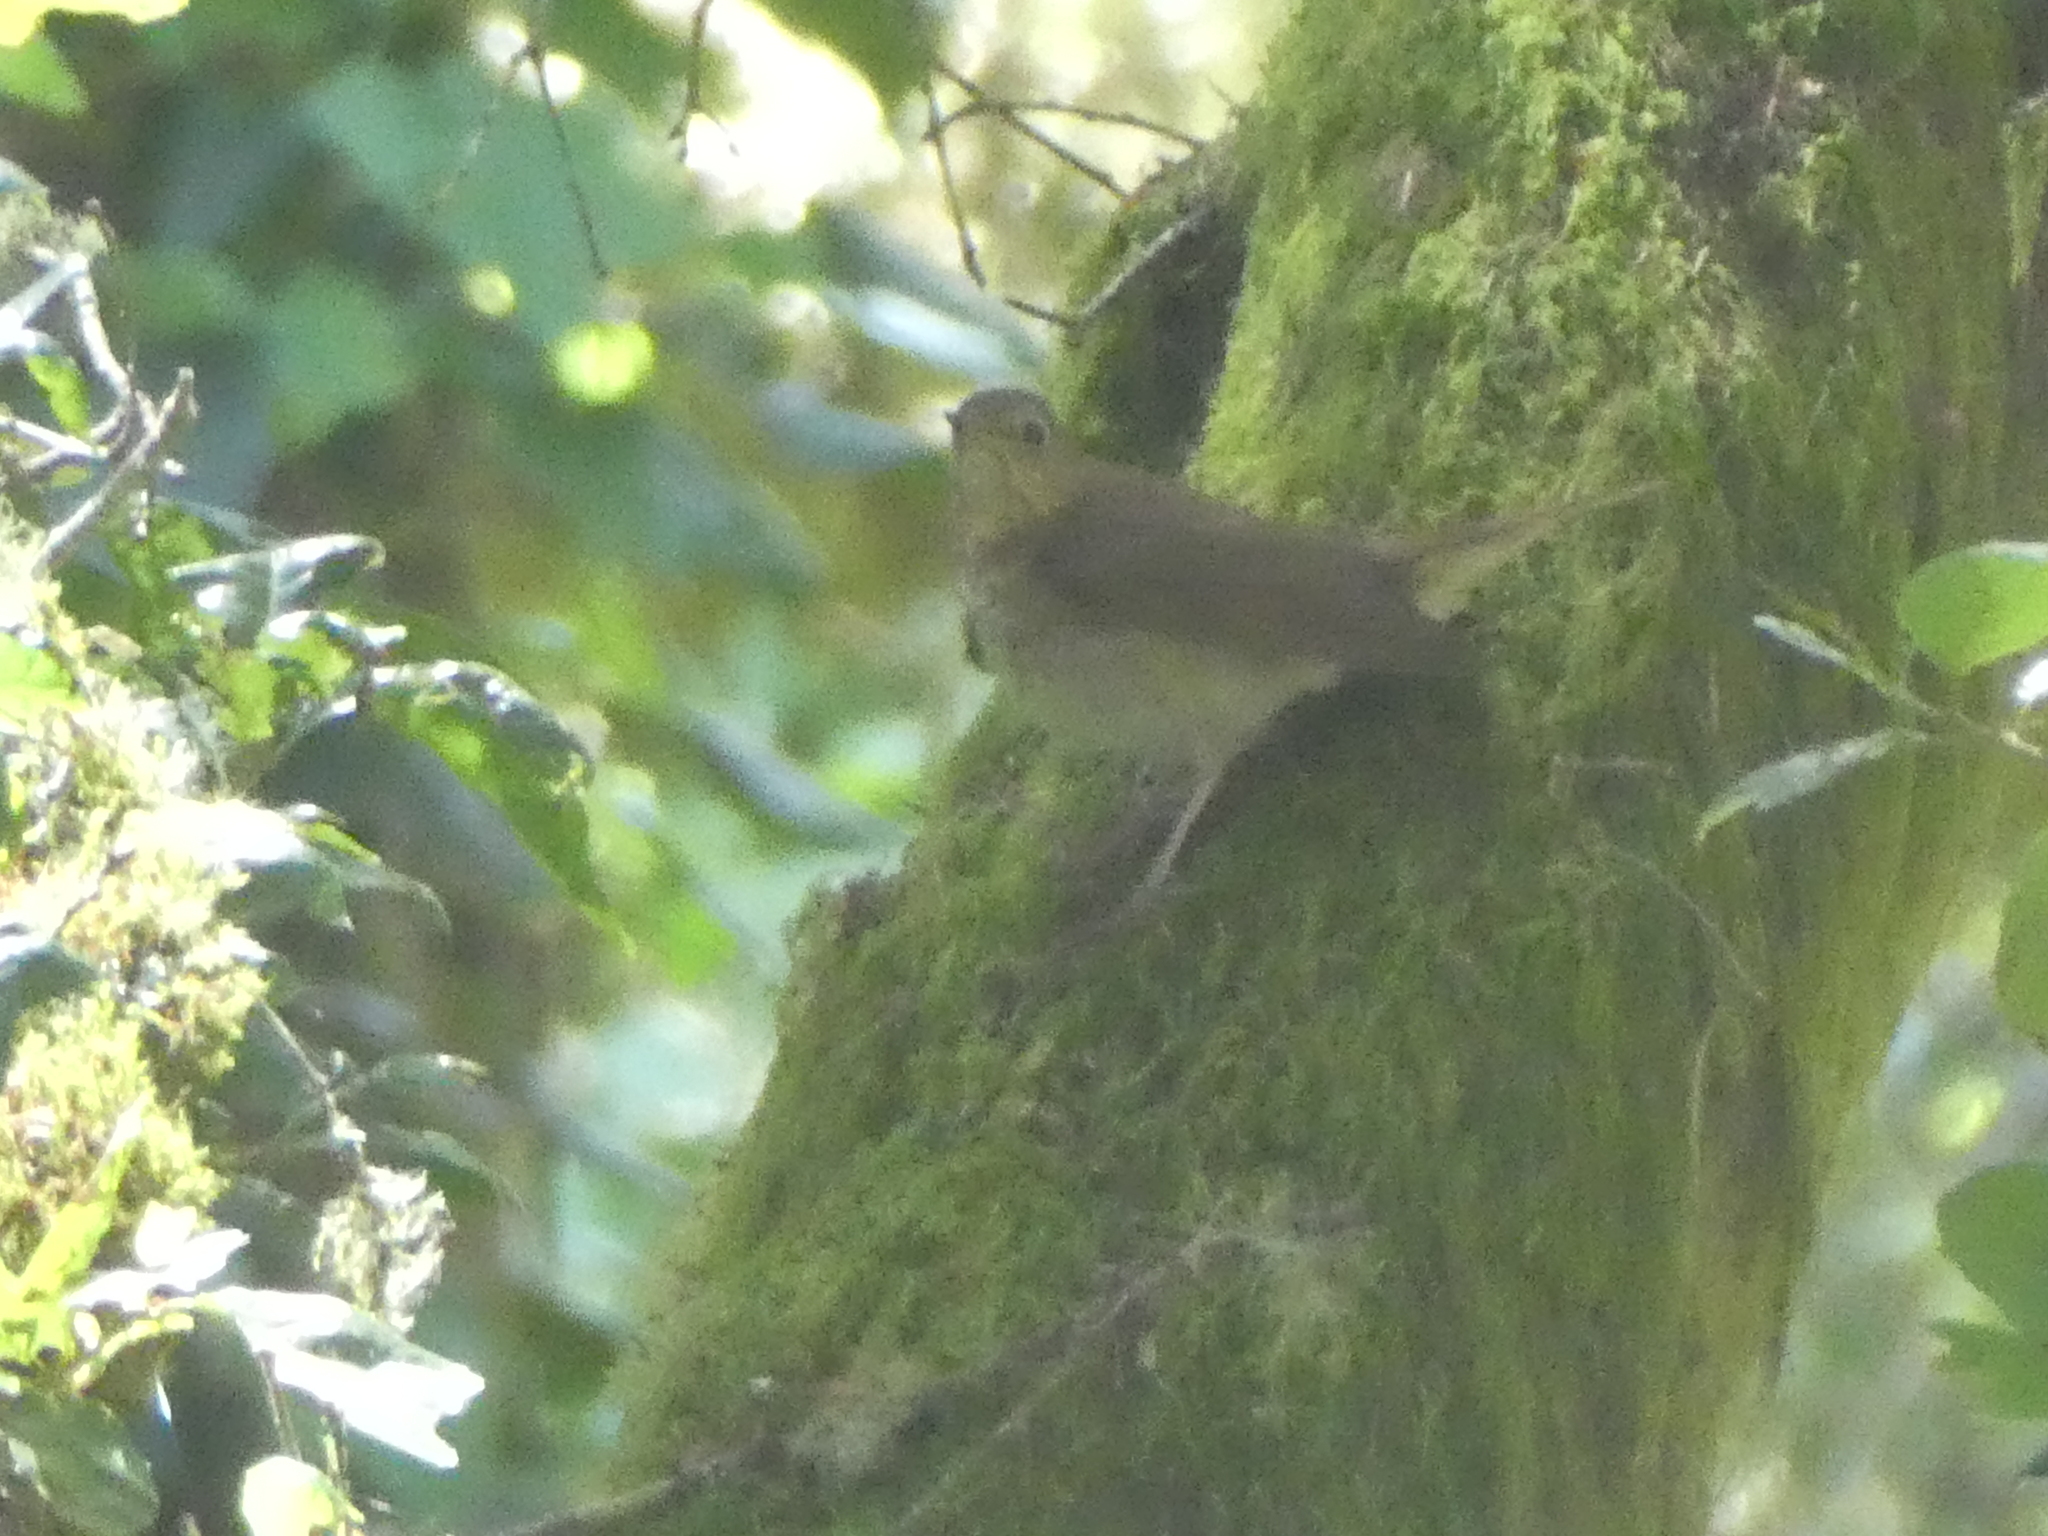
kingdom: Animalia
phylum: Chordata
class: Aves
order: Passeriformes
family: Turdidae
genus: Catharus
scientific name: Catharus ustulatus
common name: Swainson's thrush
